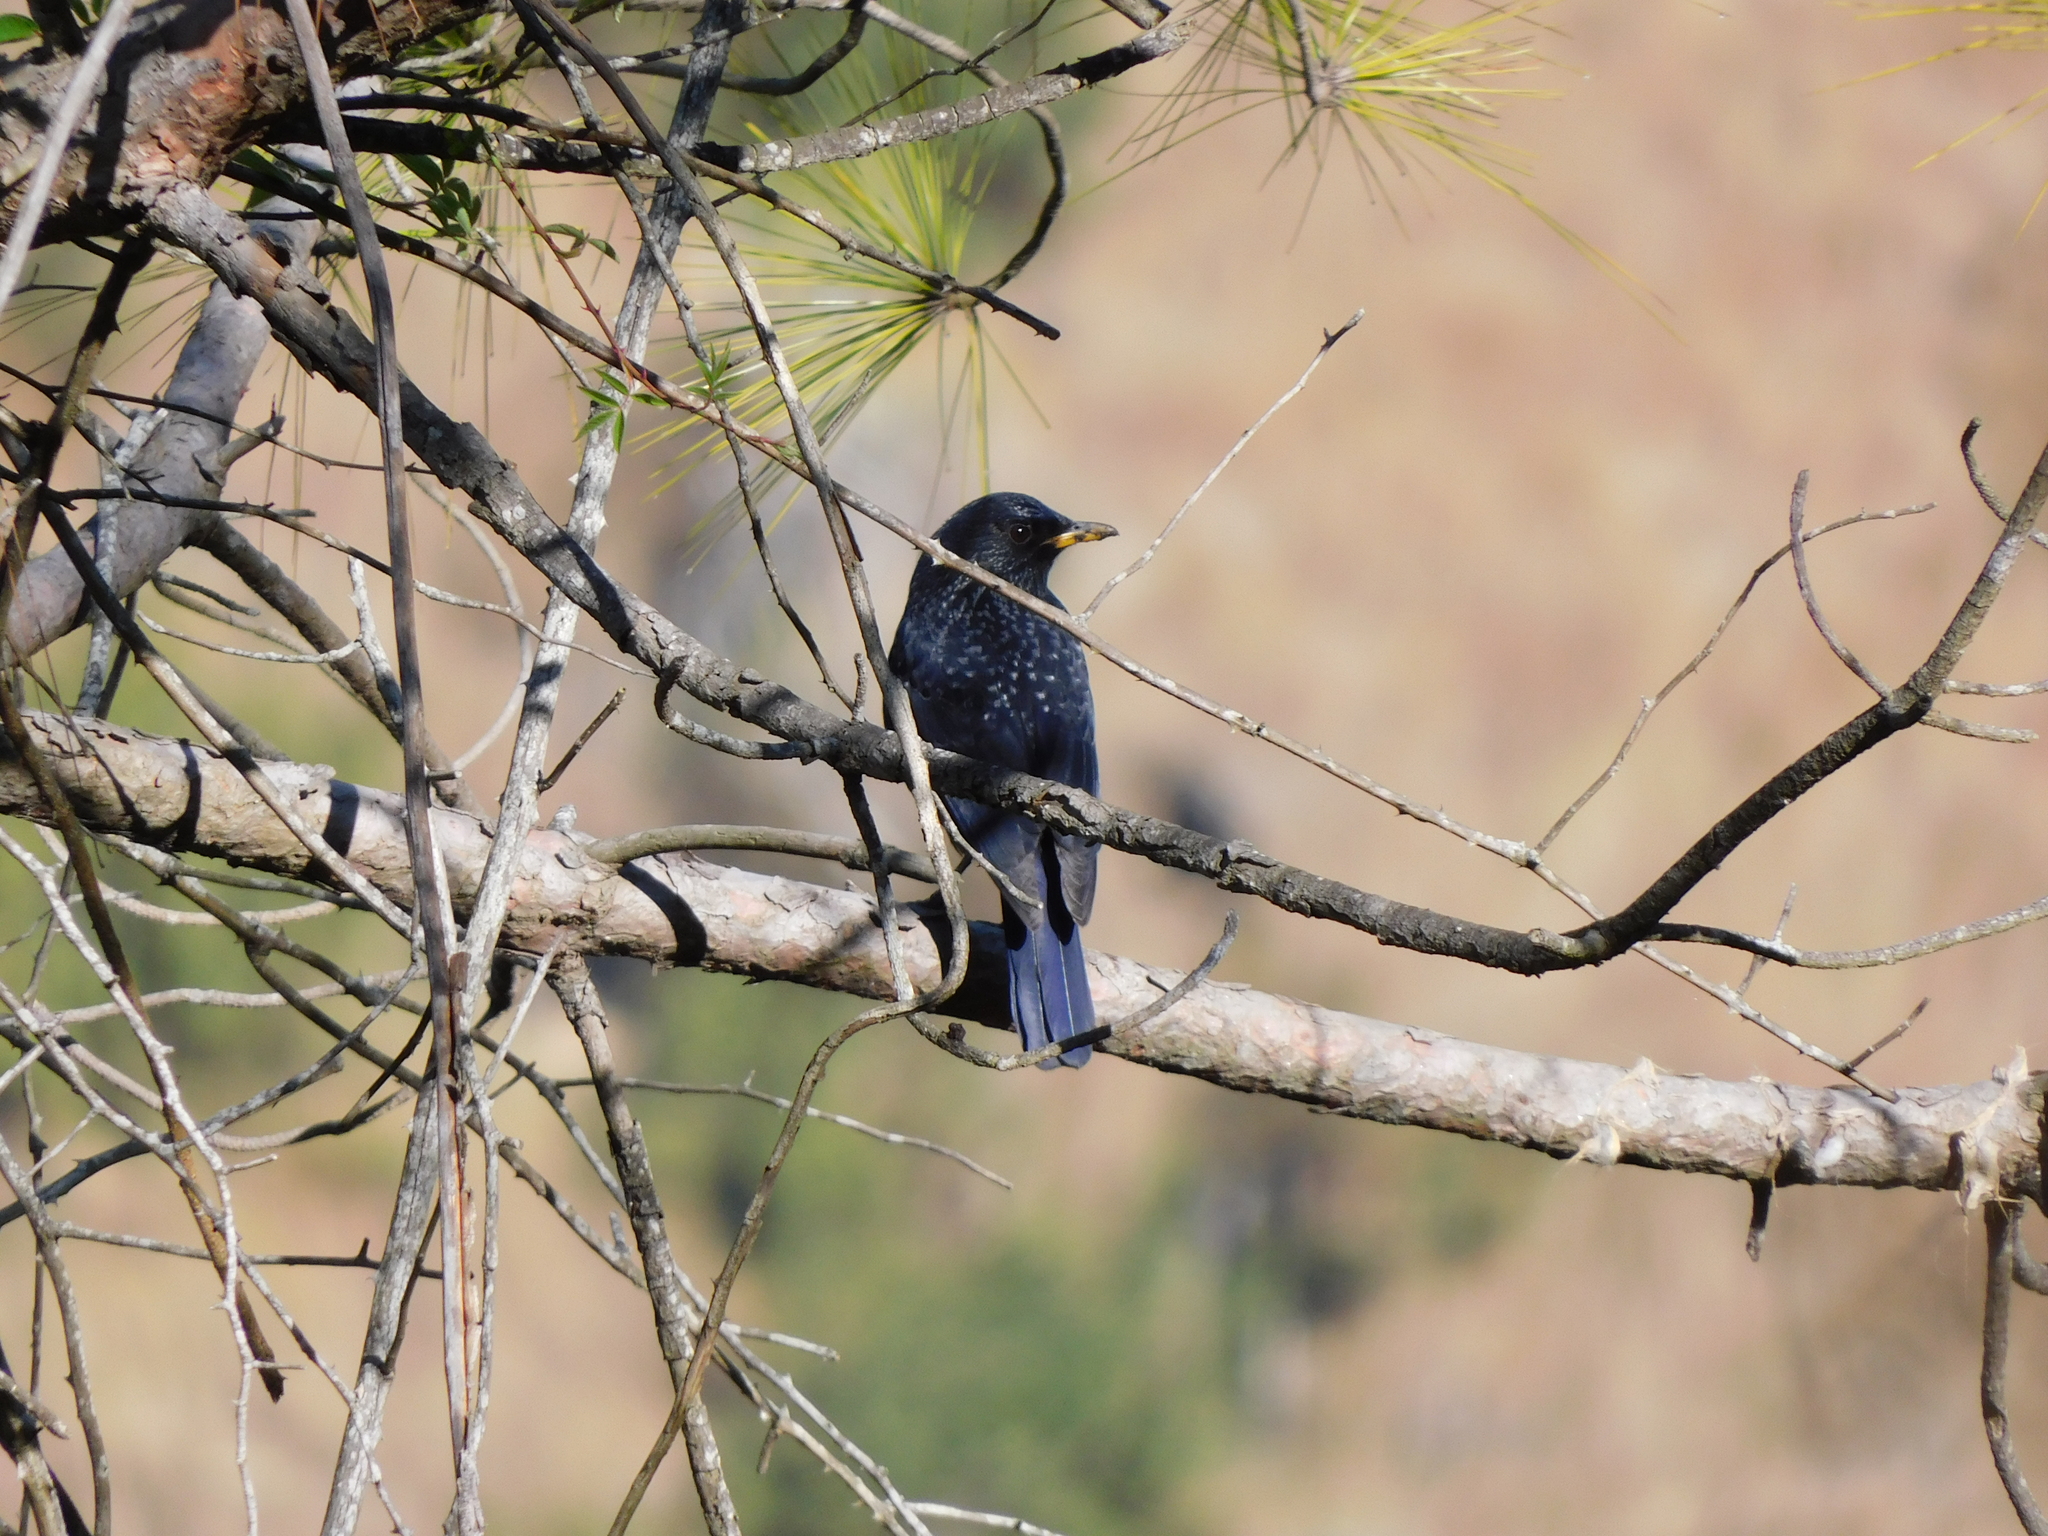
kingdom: Animalia
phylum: Chordata
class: Aves
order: Passeriformes
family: Muscicapidae
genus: Myophonus
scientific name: Myophonus caeruleus
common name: Blue whistling-thrush
